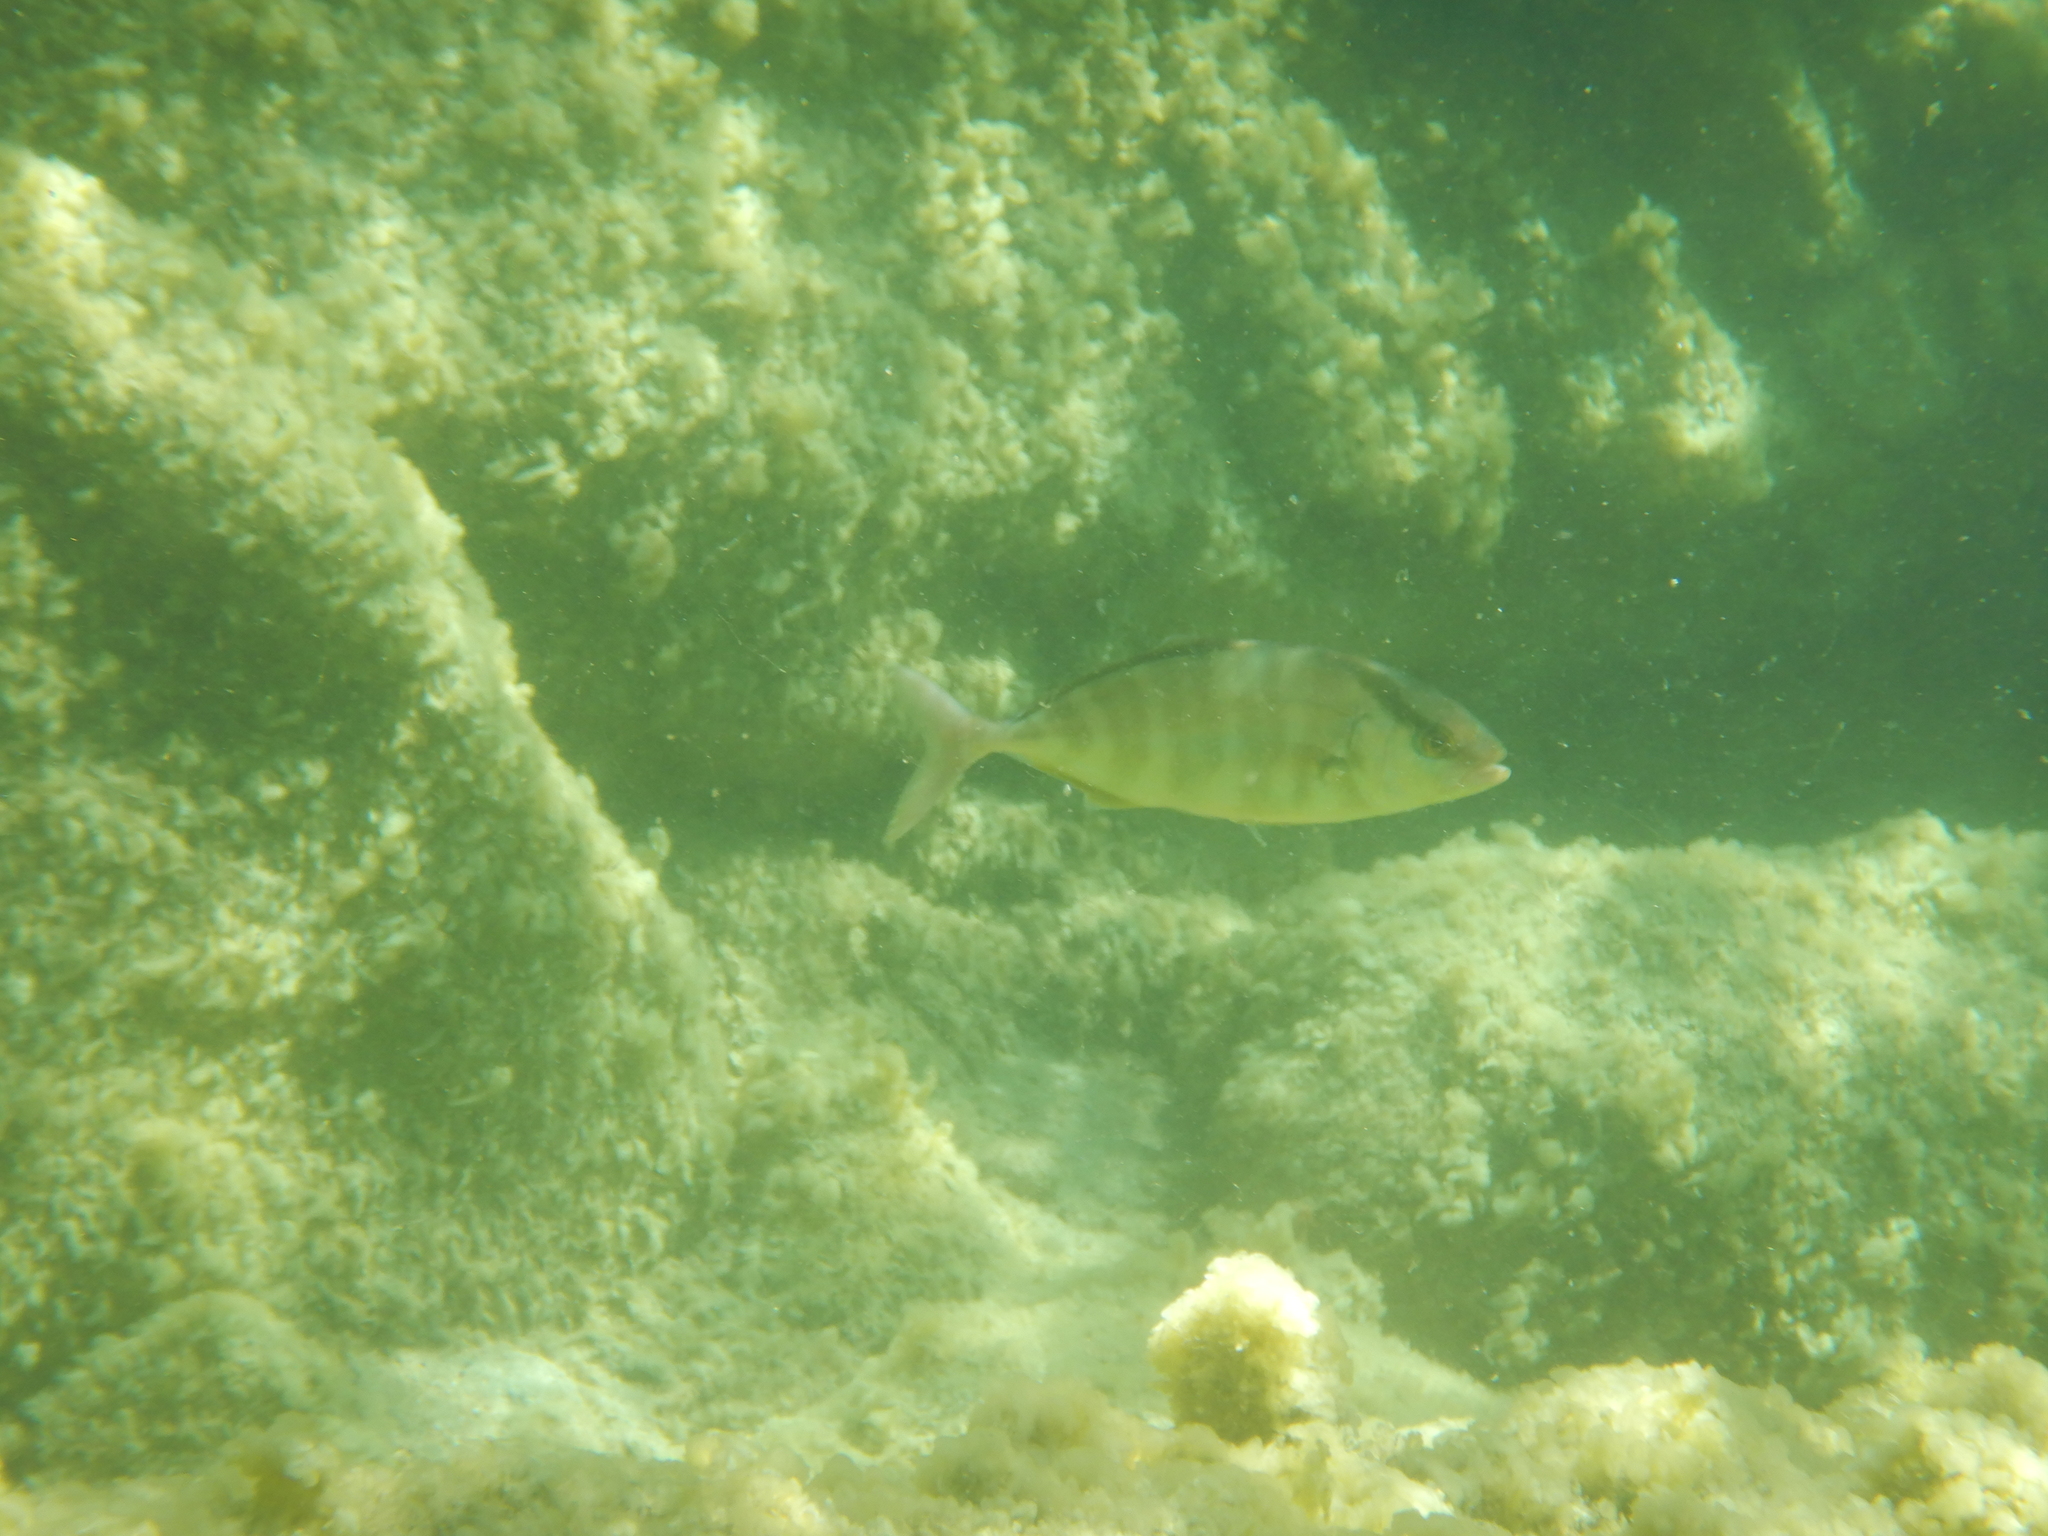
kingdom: Animalia
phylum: Chordata
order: Perciformes
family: Carangidae
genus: Seriola
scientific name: Seriola dumerili
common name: Greater amberjack
